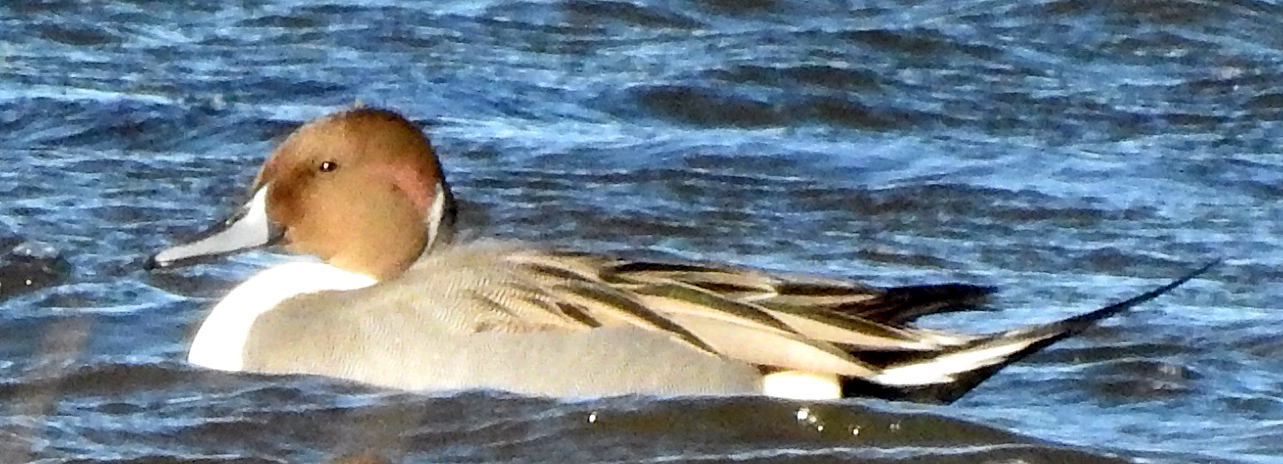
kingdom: Animalia
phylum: Chordata
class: Aves
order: Anseriformes
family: Anatidae
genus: Anas
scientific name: Anas acuta
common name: Northern pintail
